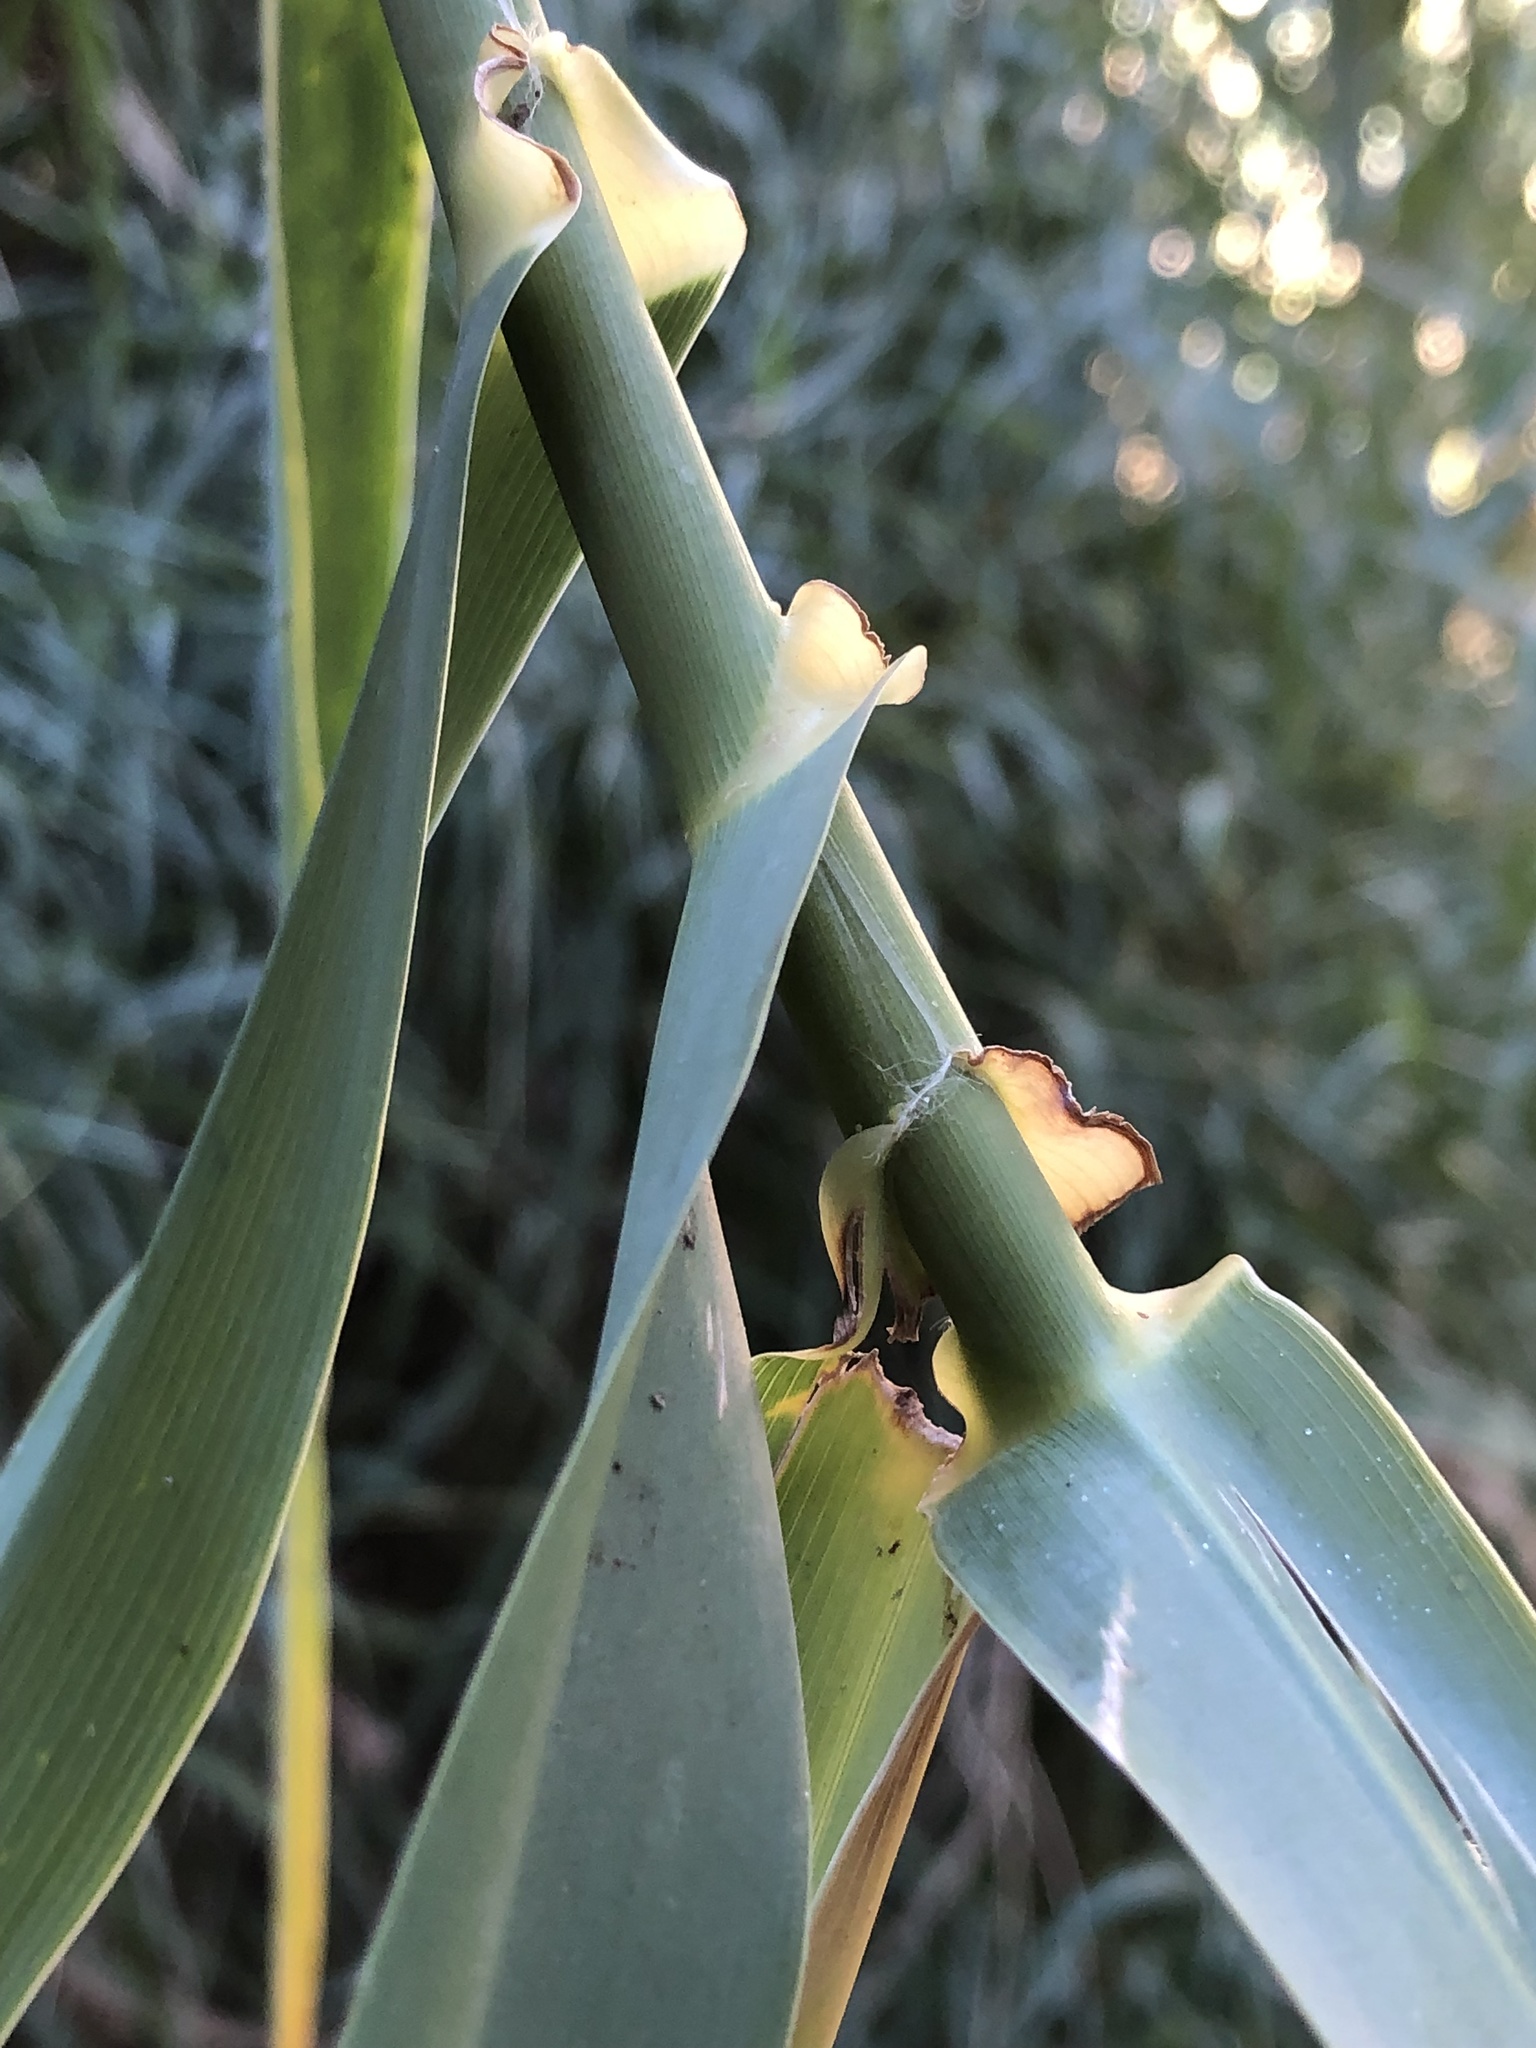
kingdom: Plantae
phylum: Tracheophyta
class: Liliopsida
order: Poales
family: Poaceae
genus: Arundo
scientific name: Arundo donax
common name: Giant reed
